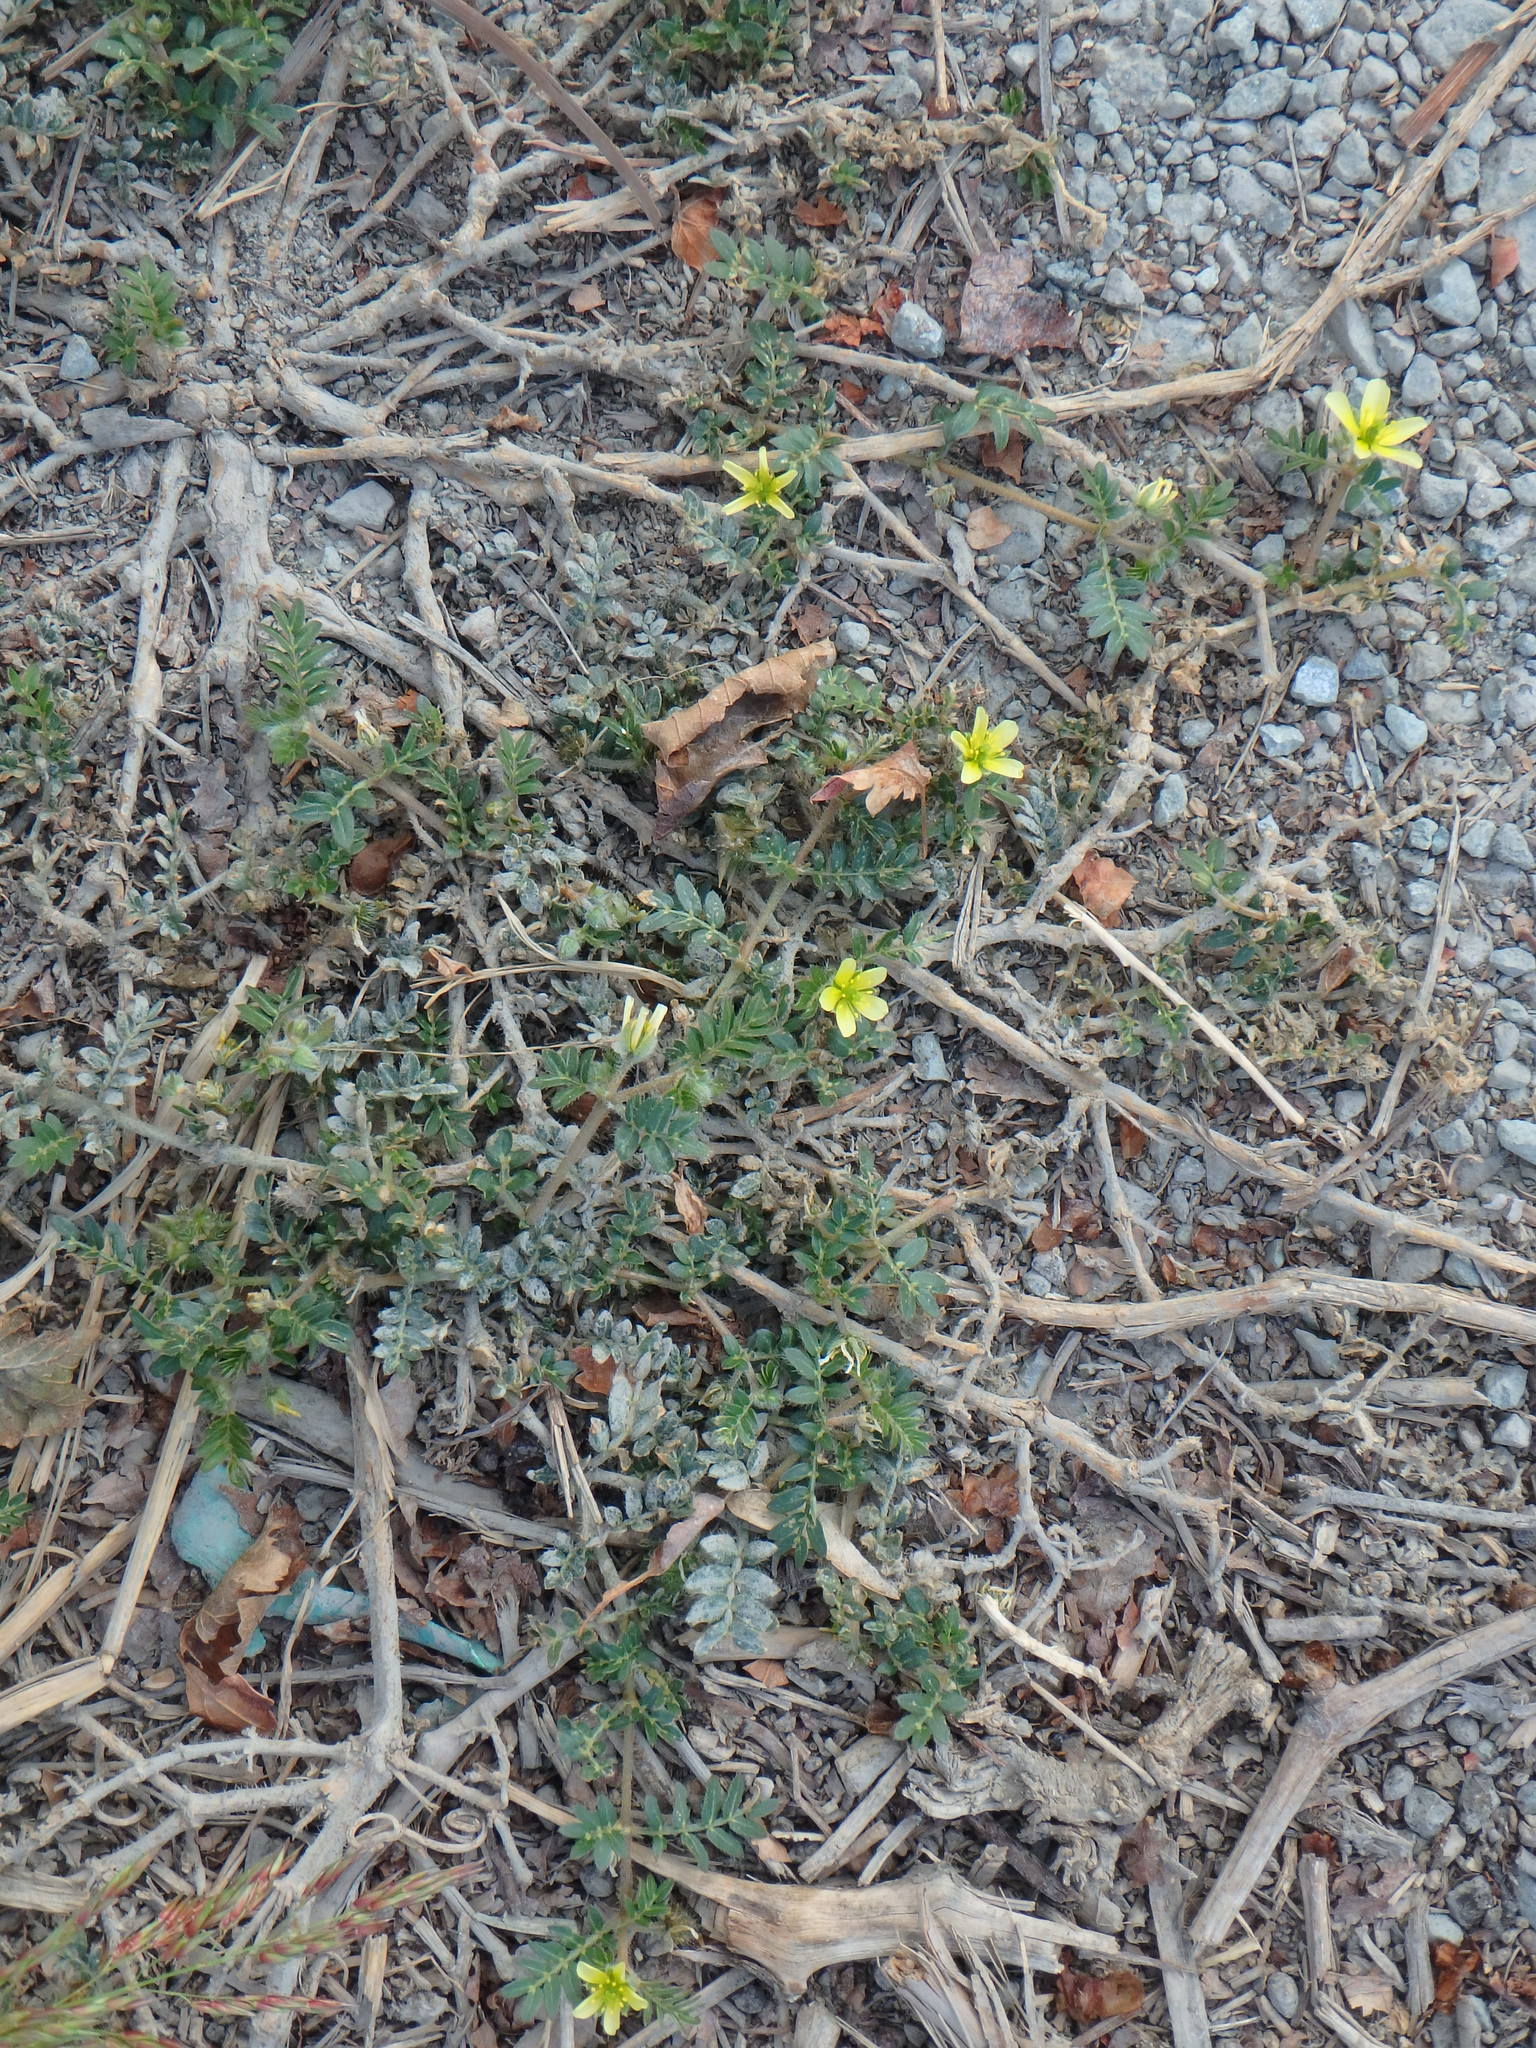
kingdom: Plantae
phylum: Tracheophyta
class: Magnoliopsida
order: Zygophyllales
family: Zygophyllaceae
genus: Tribulus
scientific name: Tribulus terrestris
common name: Puncturevine
